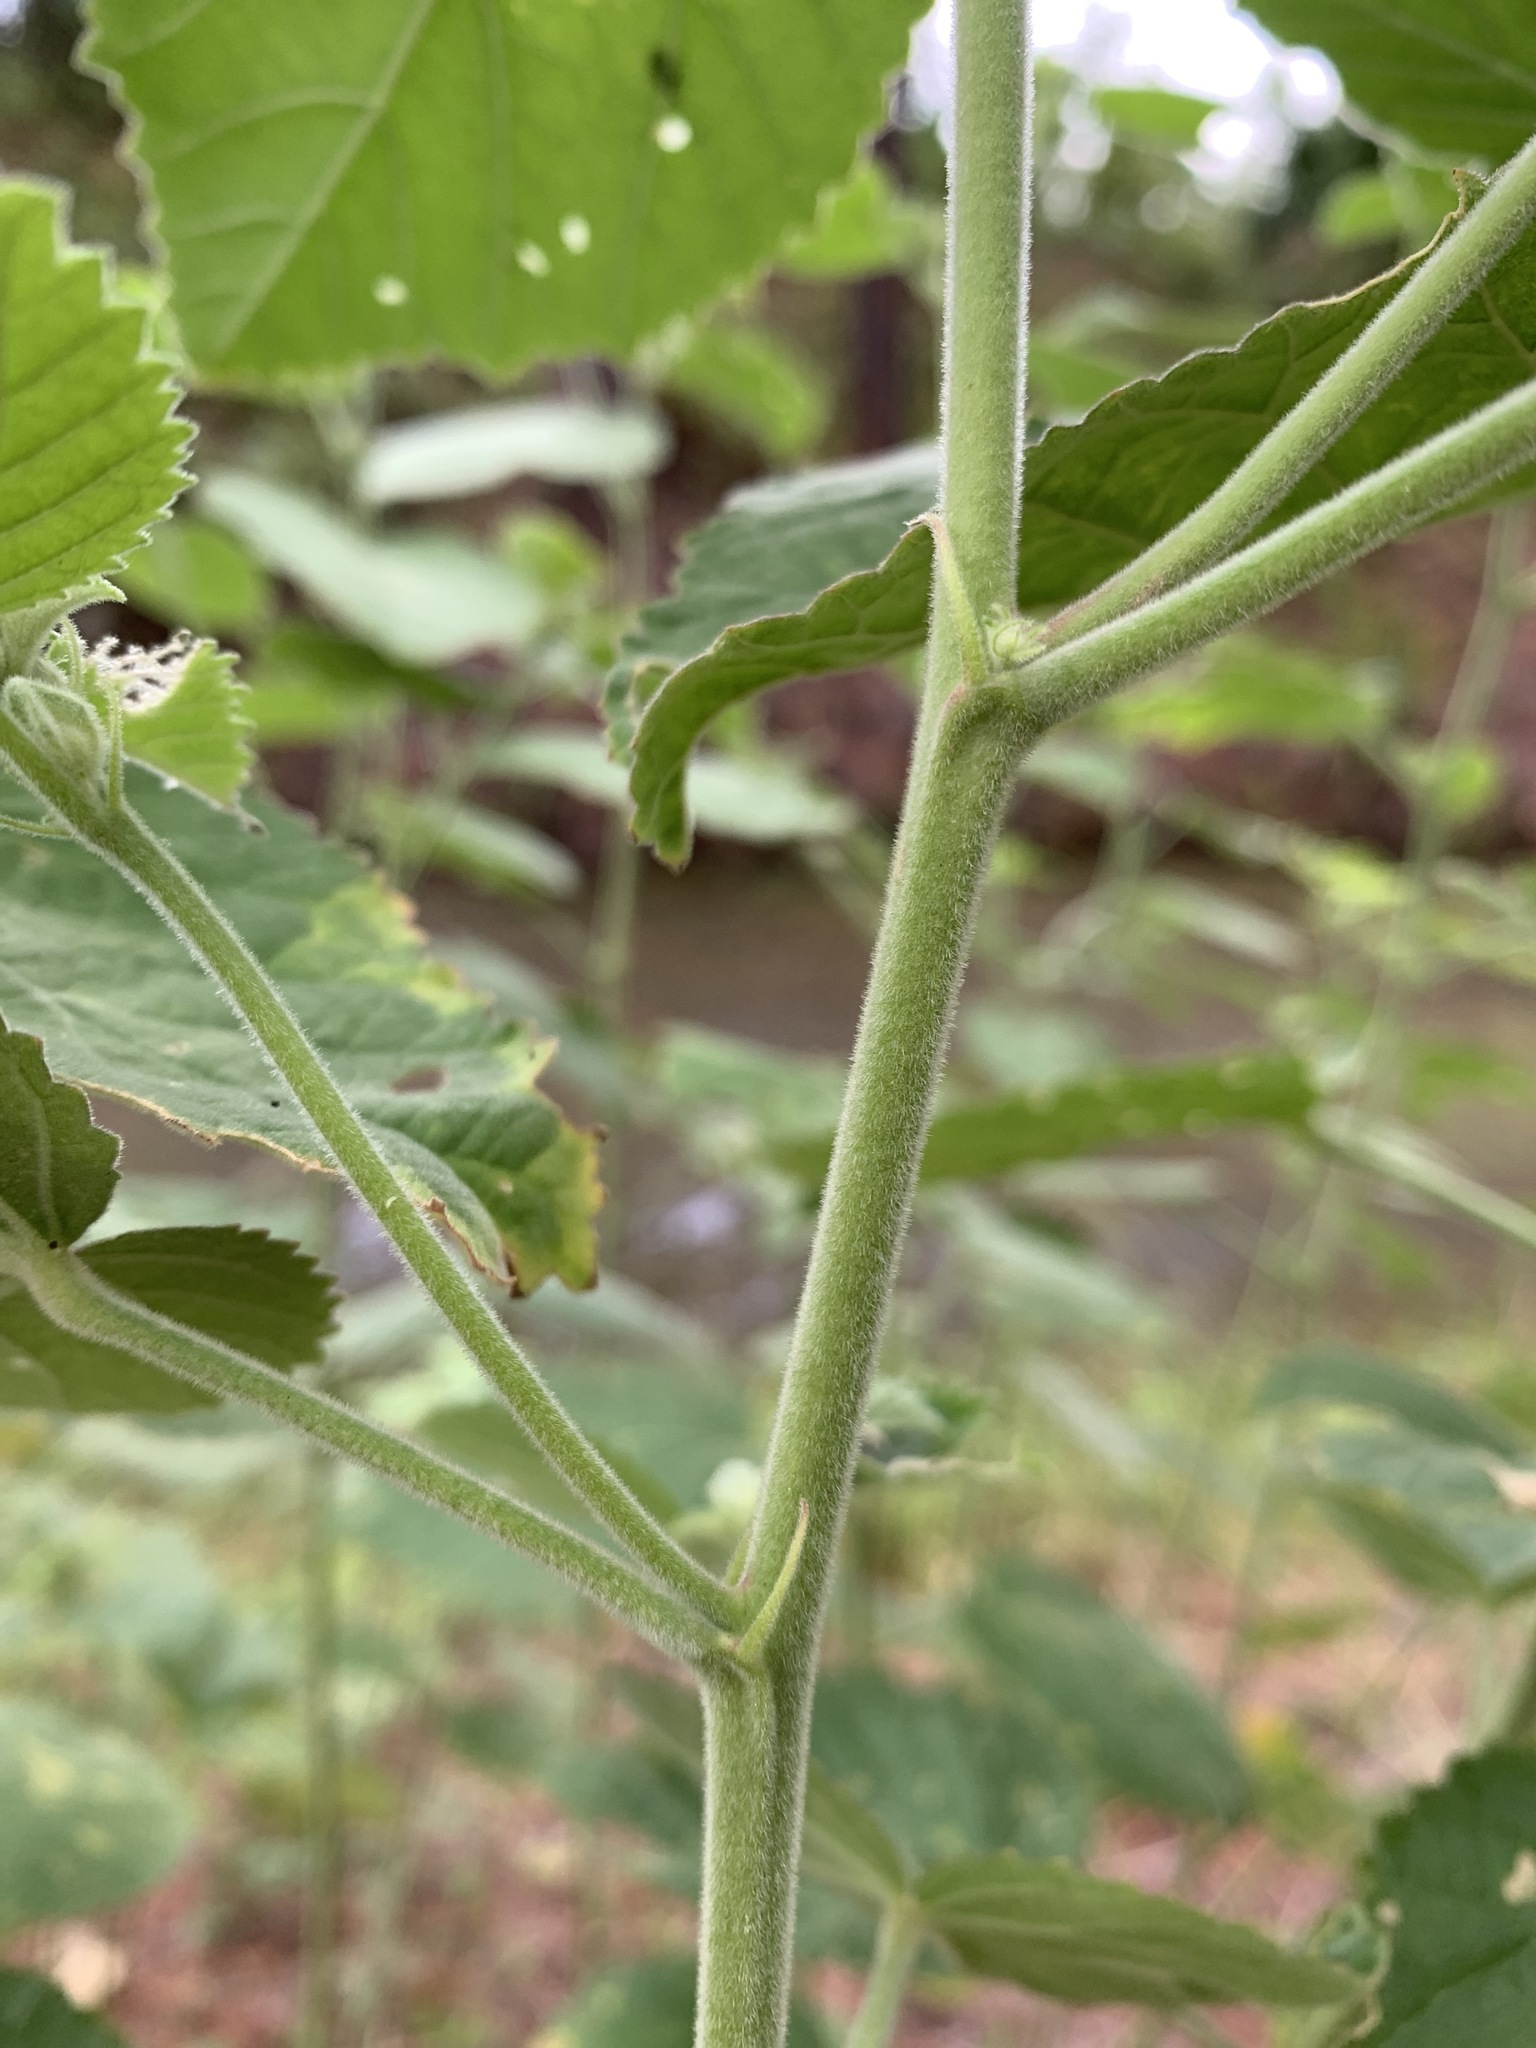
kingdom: Plantae
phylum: Tracheophyta
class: Magnoliopsida
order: Malvales
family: Malvaceae
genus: Sida
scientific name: Sida cordifolia
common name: Ilima
